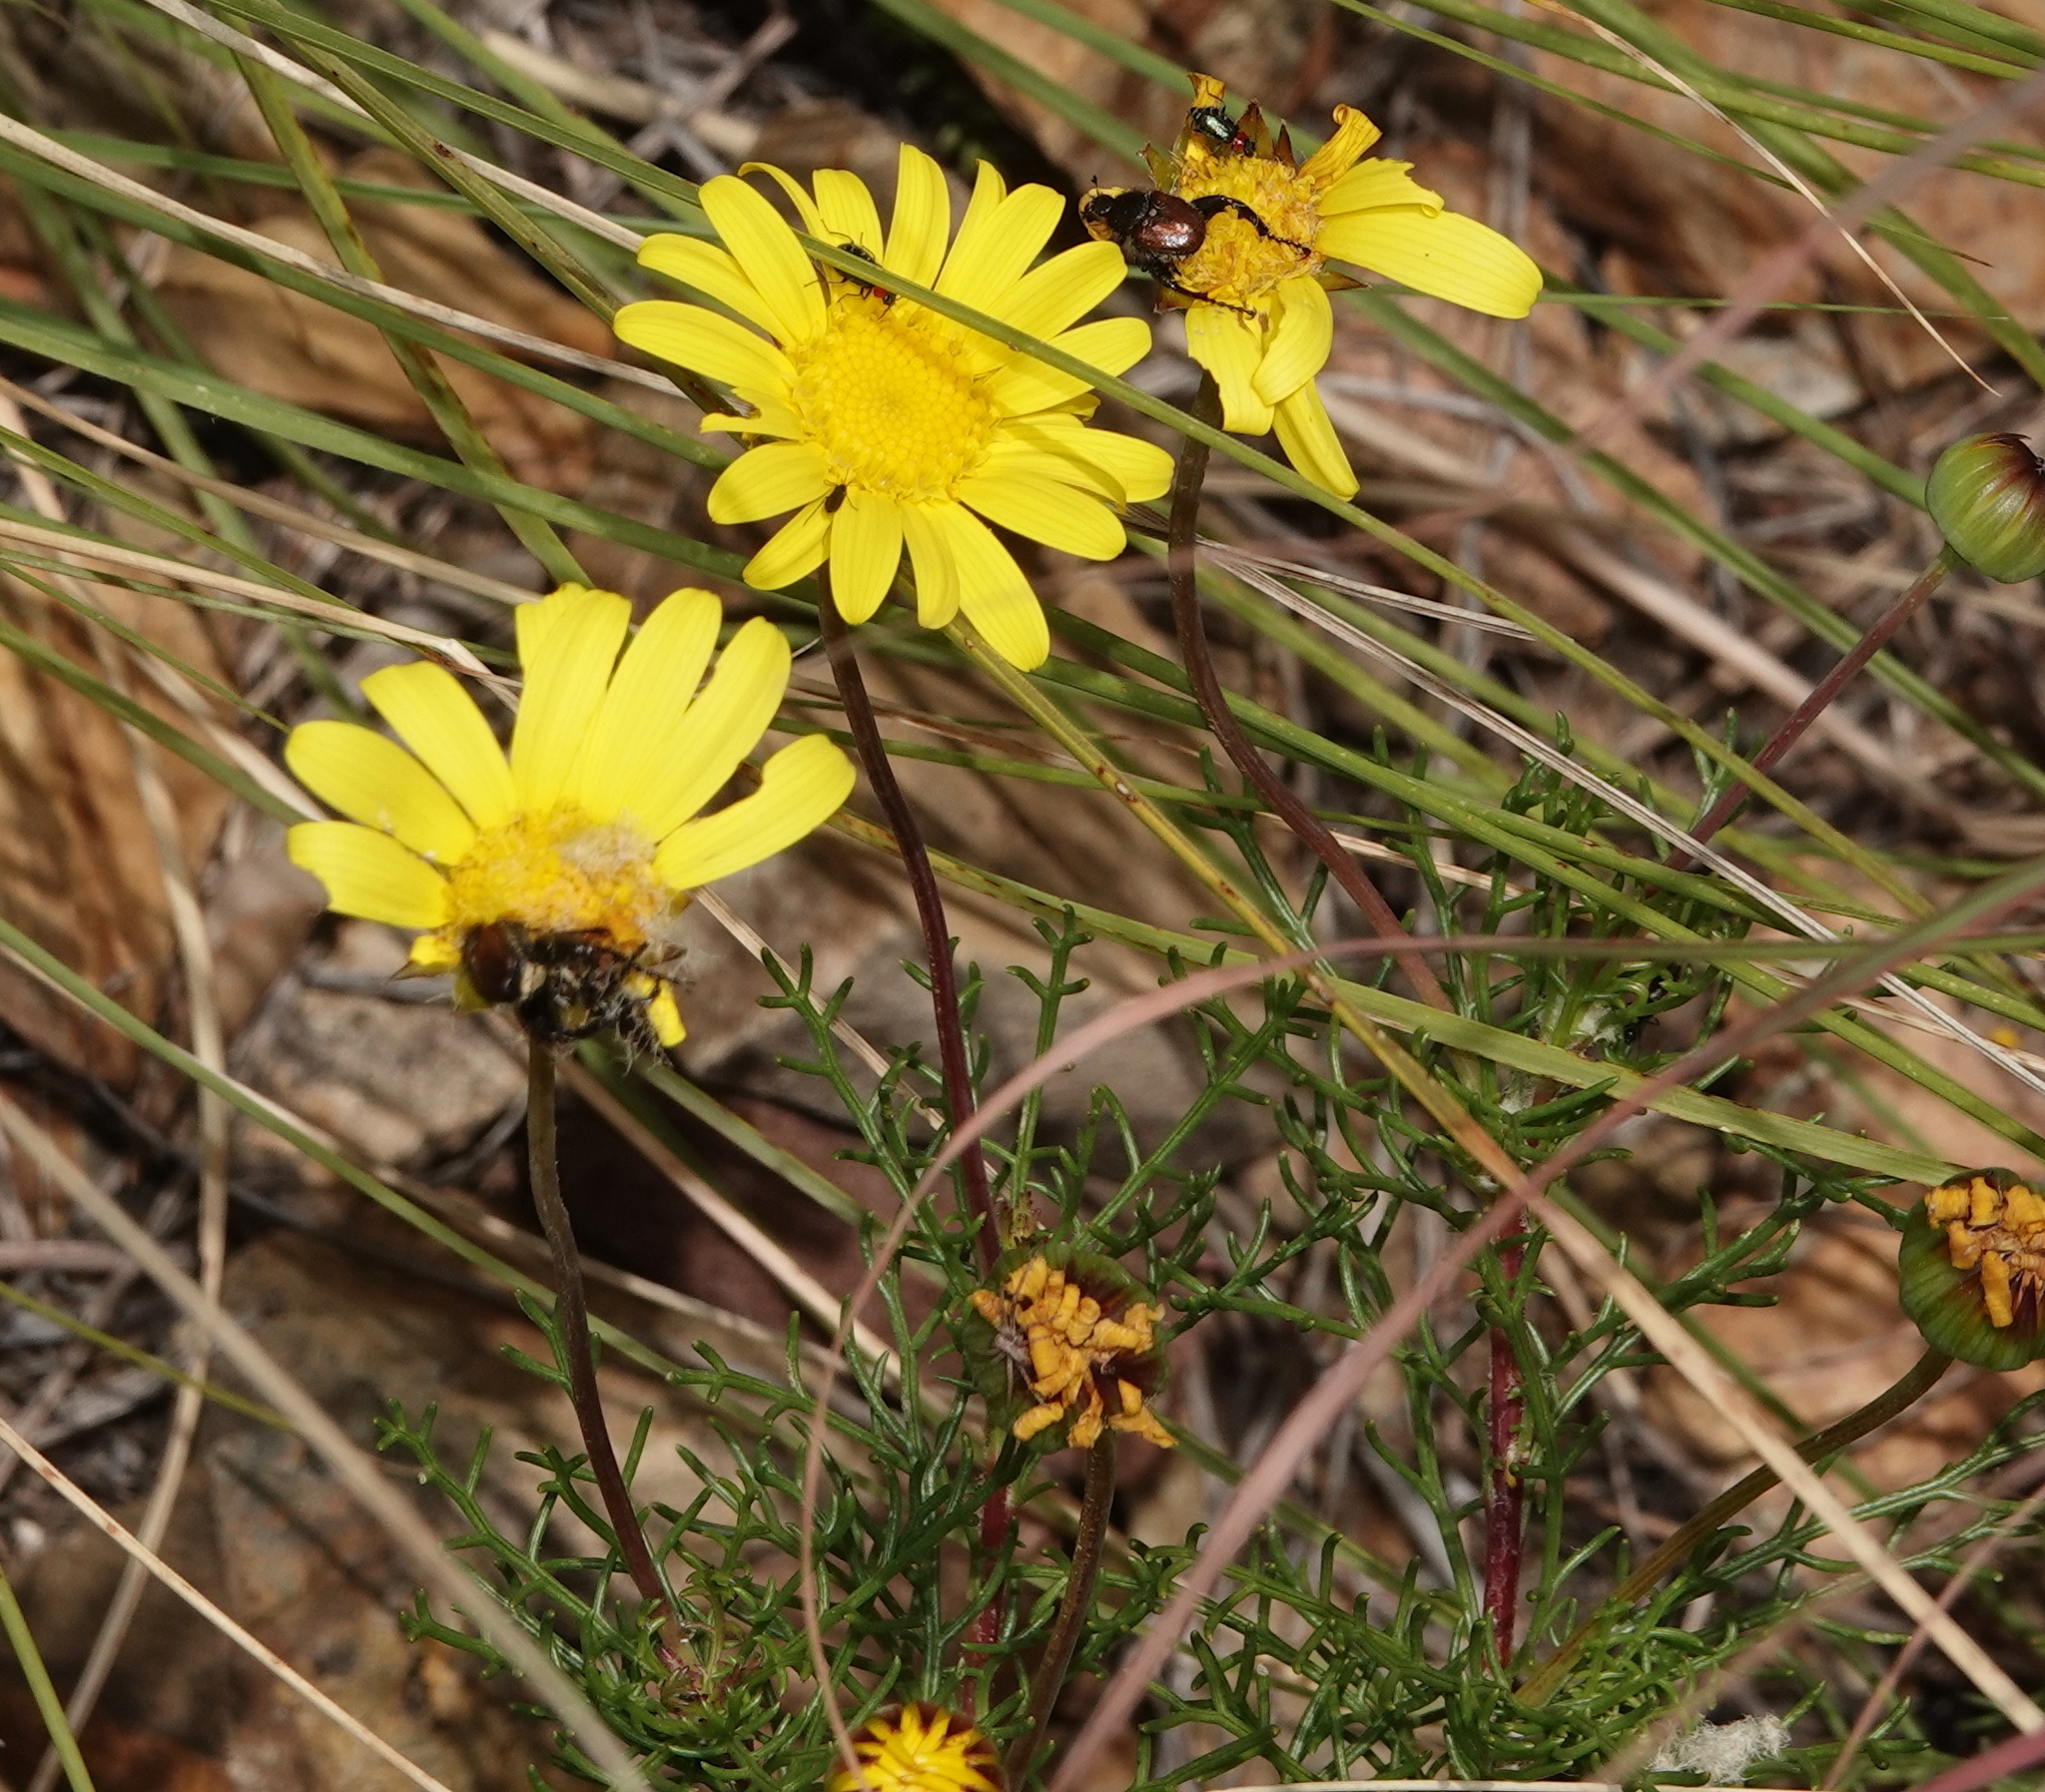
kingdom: Plantae
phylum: Tracheophyta
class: Magnoliopsida
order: Asterales
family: Asteraceae
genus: Euryops
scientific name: Euryops abrotanifolius
